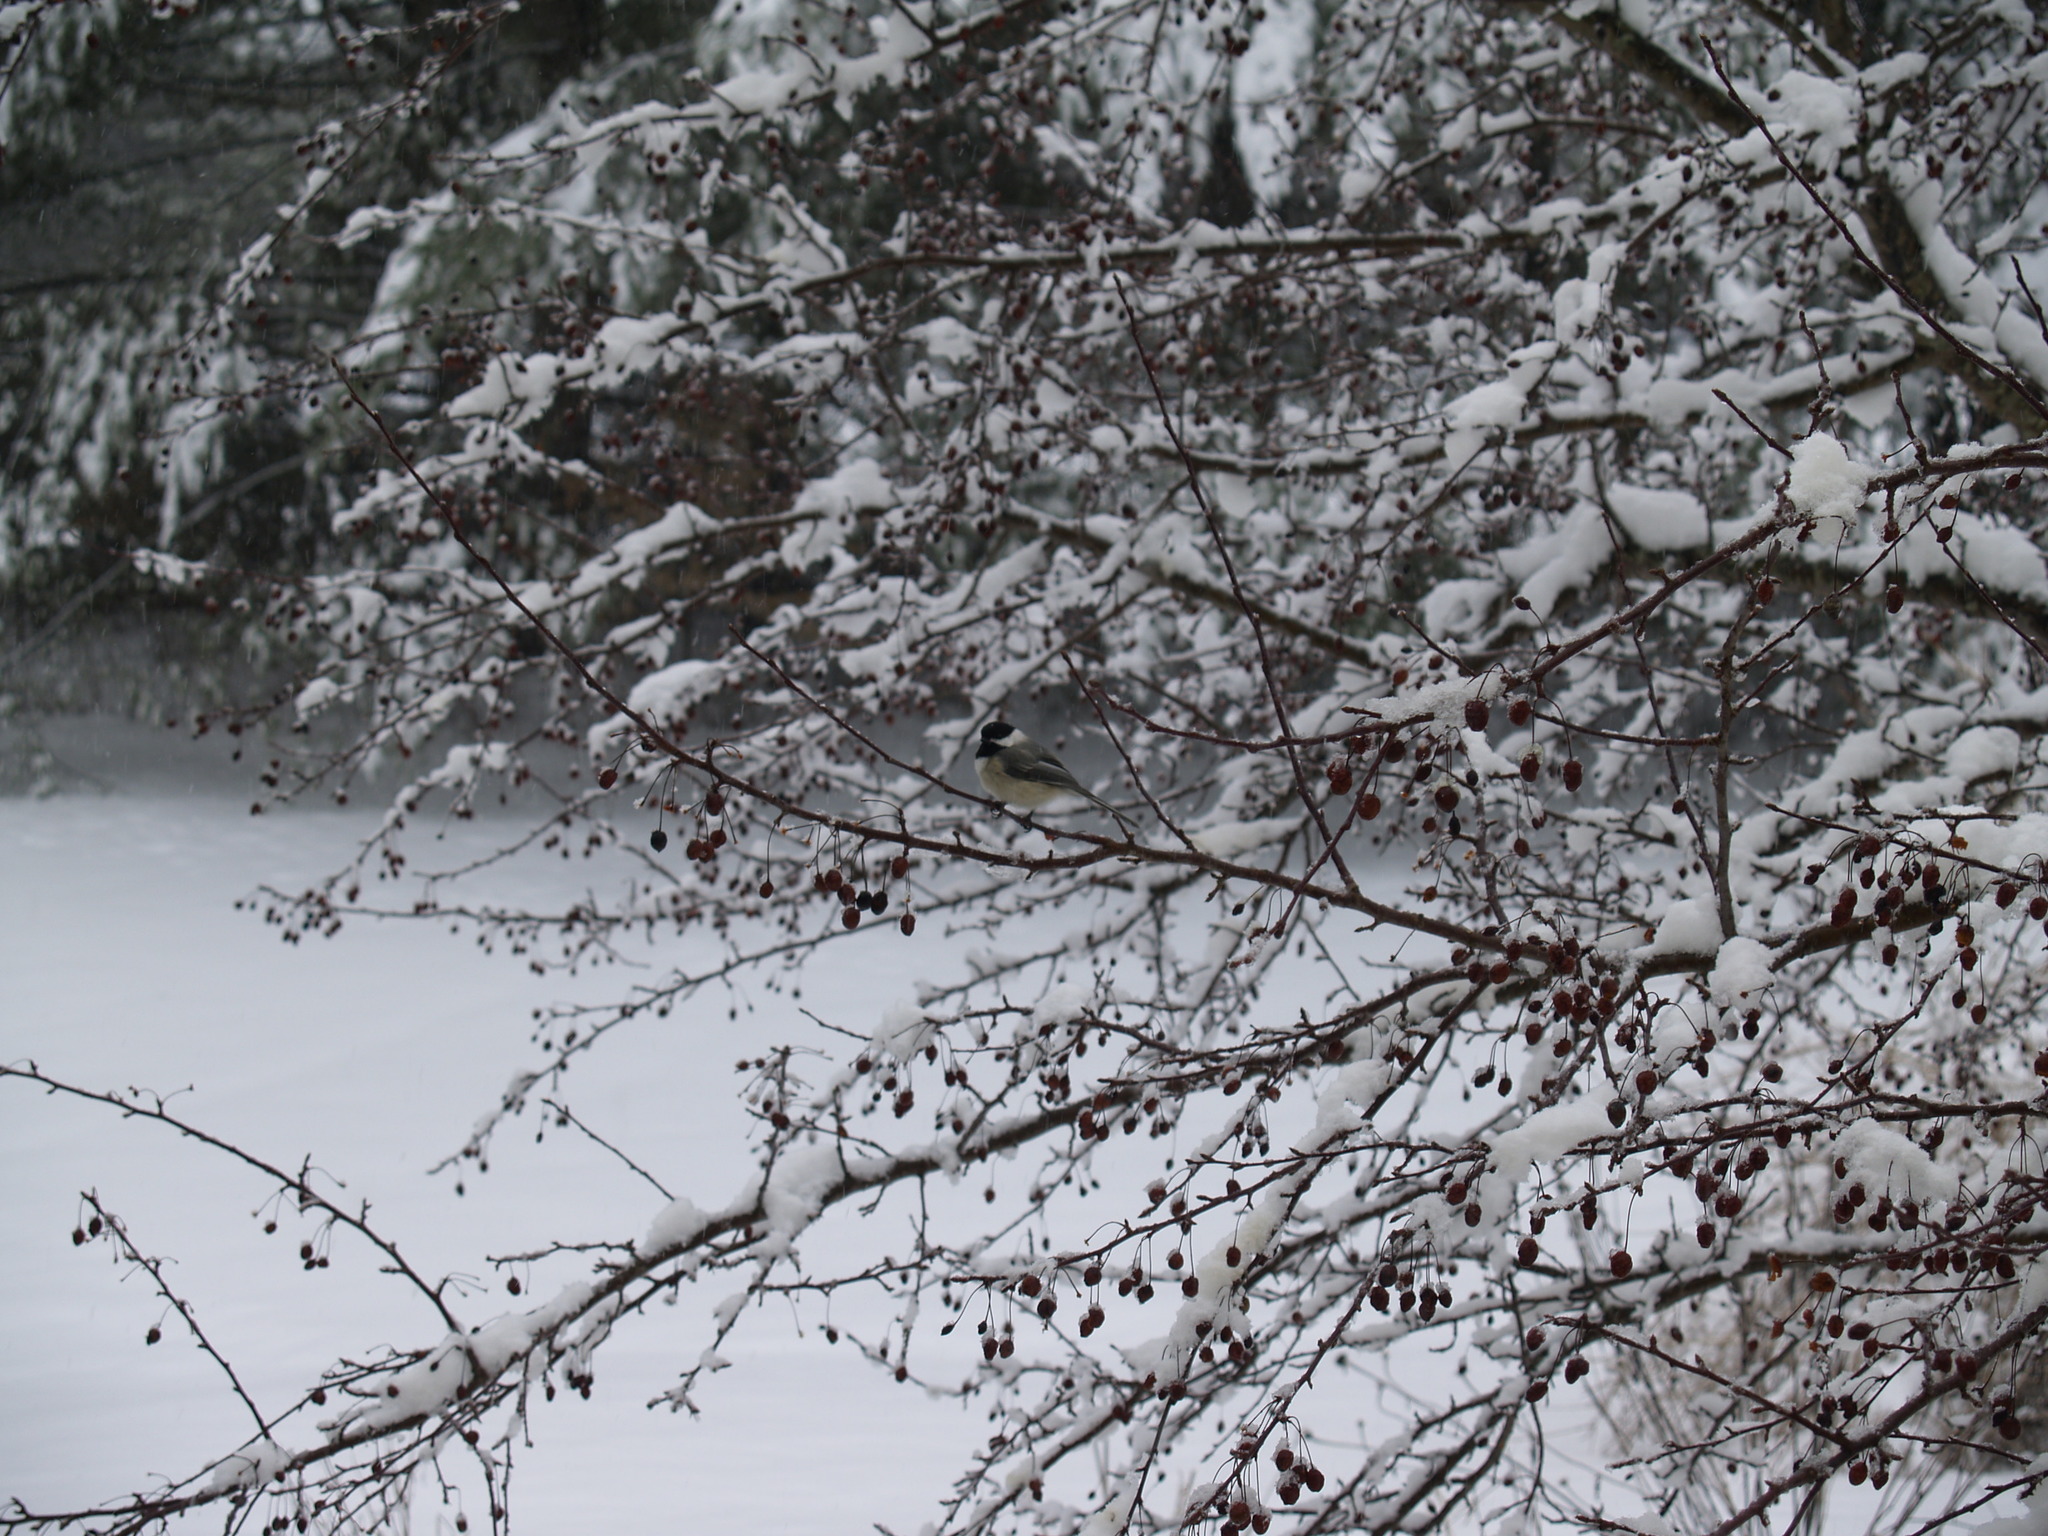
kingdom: Animalia
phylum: Chordata
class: Aves
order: Passeriformes
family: Paridae
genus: Poecile
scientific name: Poecile atricapillus
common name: Black-capped chickadee
